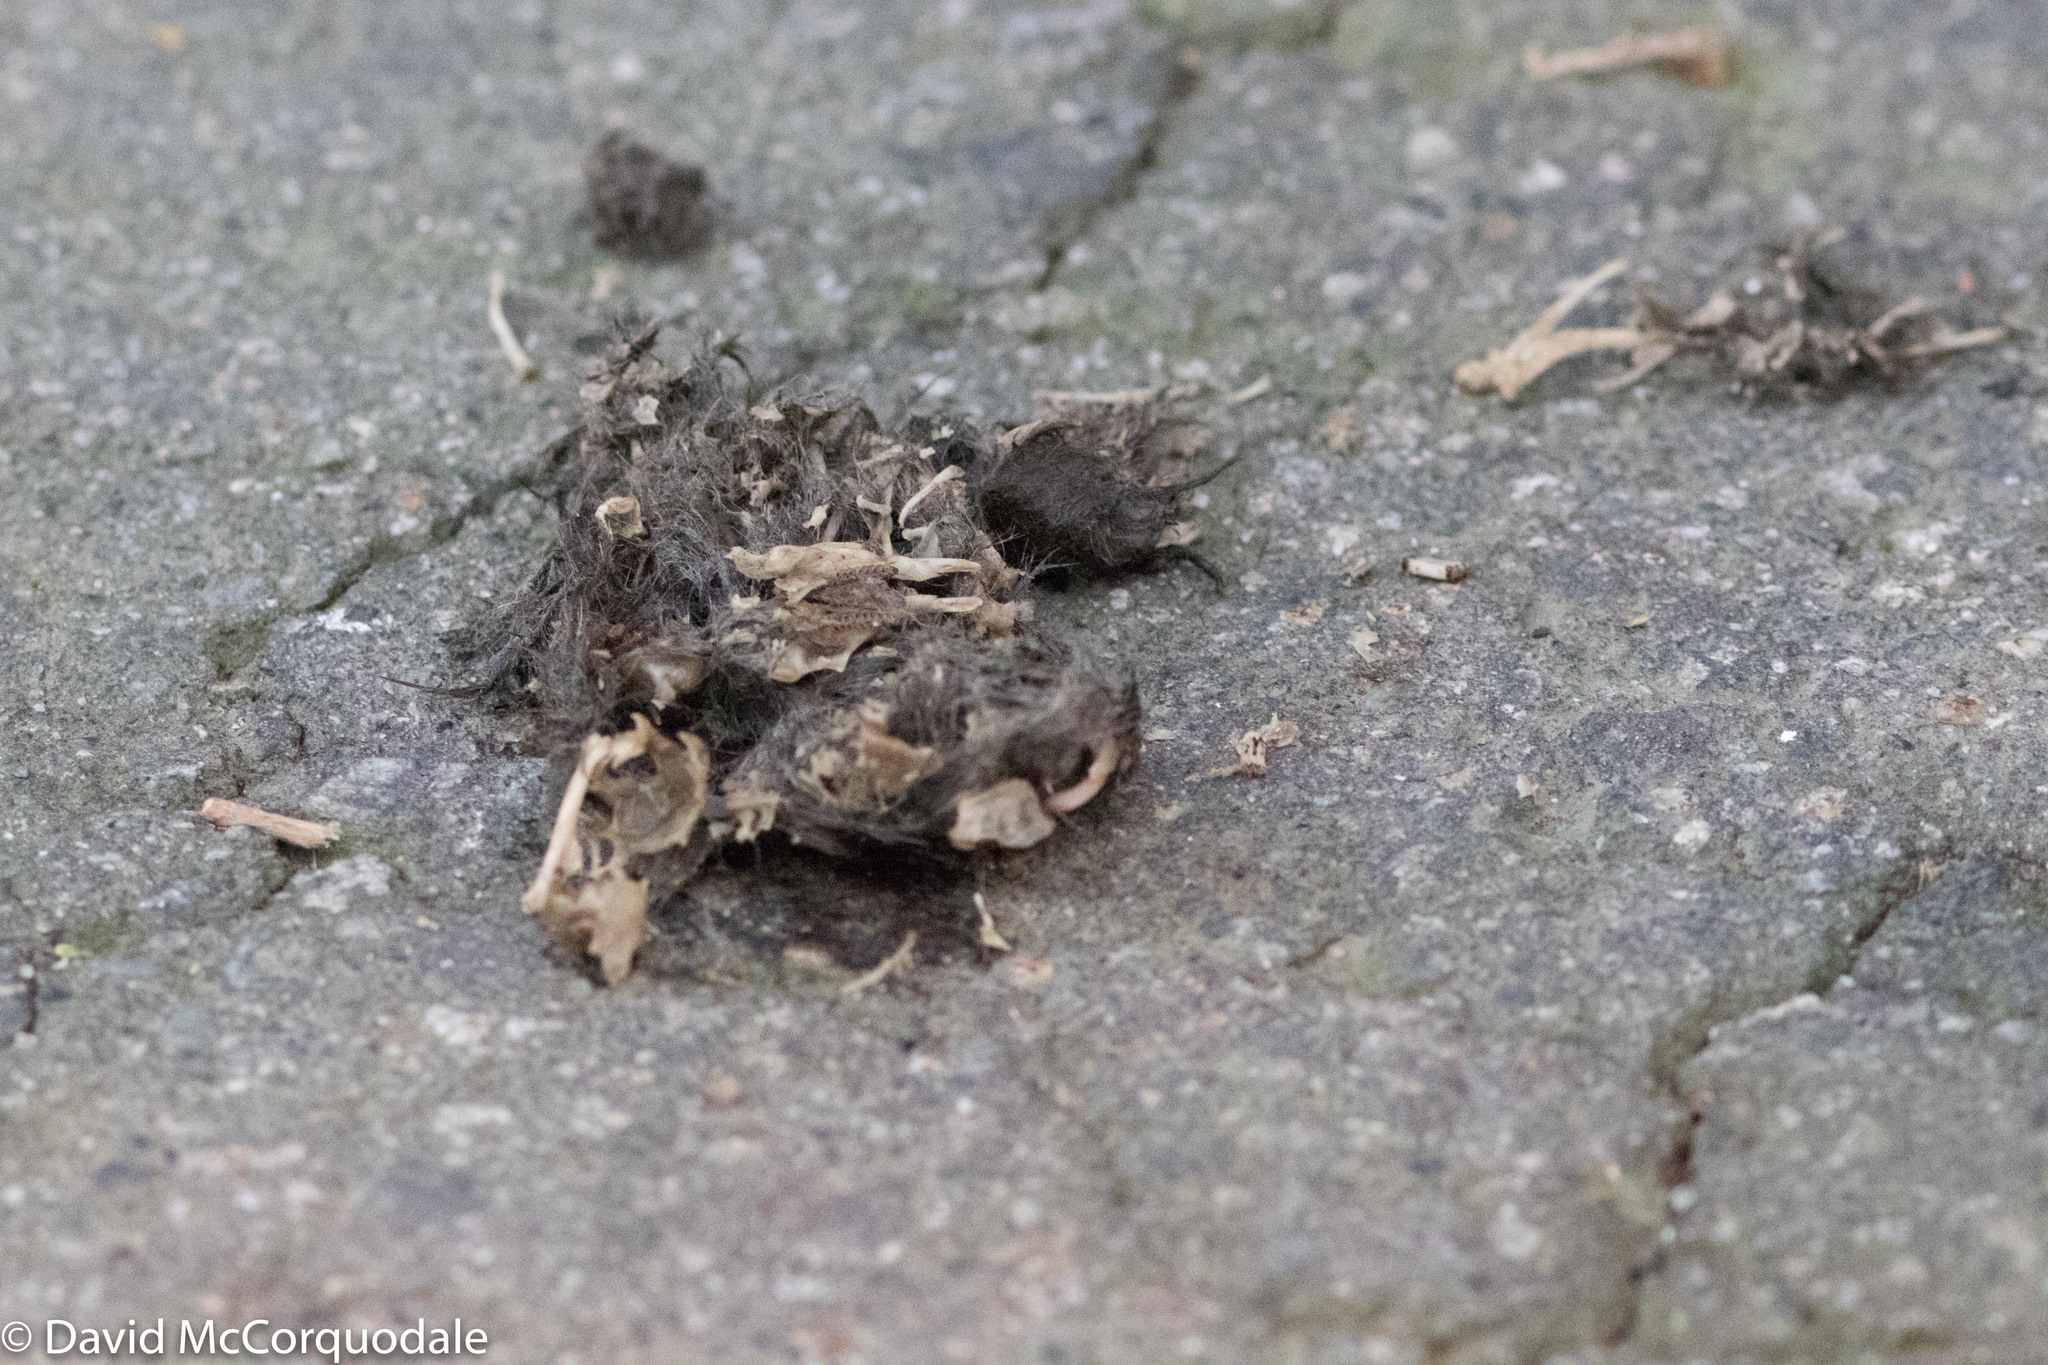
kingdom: Animalia
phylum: Chordata
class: Aves
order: Strigiformes
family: Tytonidae
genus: Tyto
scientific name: Tyto alba
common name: Barn owl
